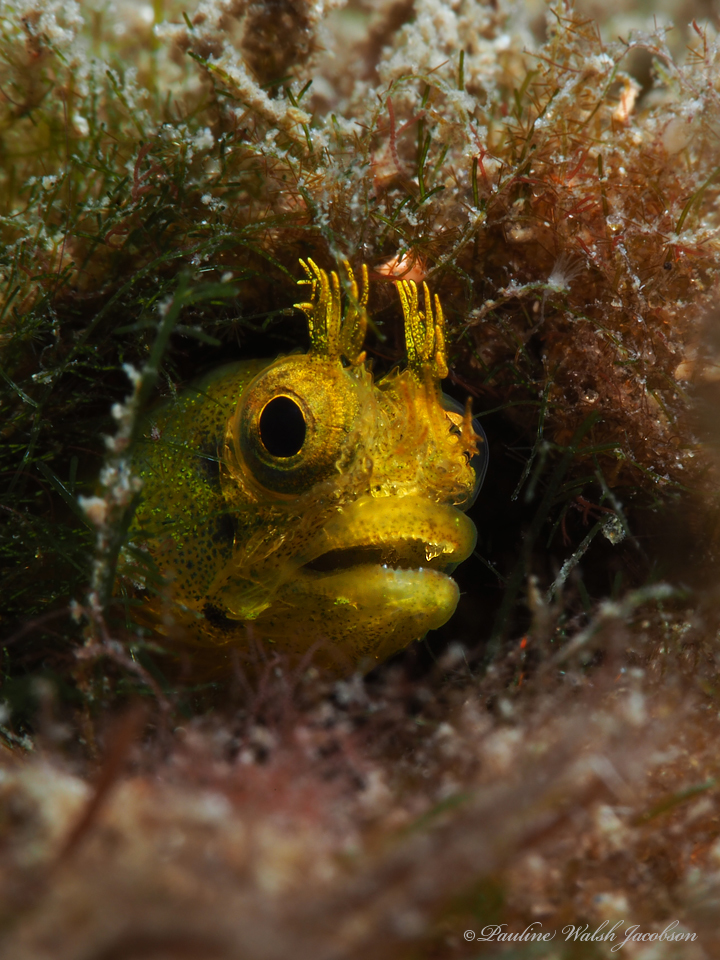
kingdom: Animalia
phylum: Chordata
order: Perciformes
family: Chaenopsidae
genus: Acanthemblemaria
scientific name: Acanthemblemaria aspera
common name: Roughhead blenny
